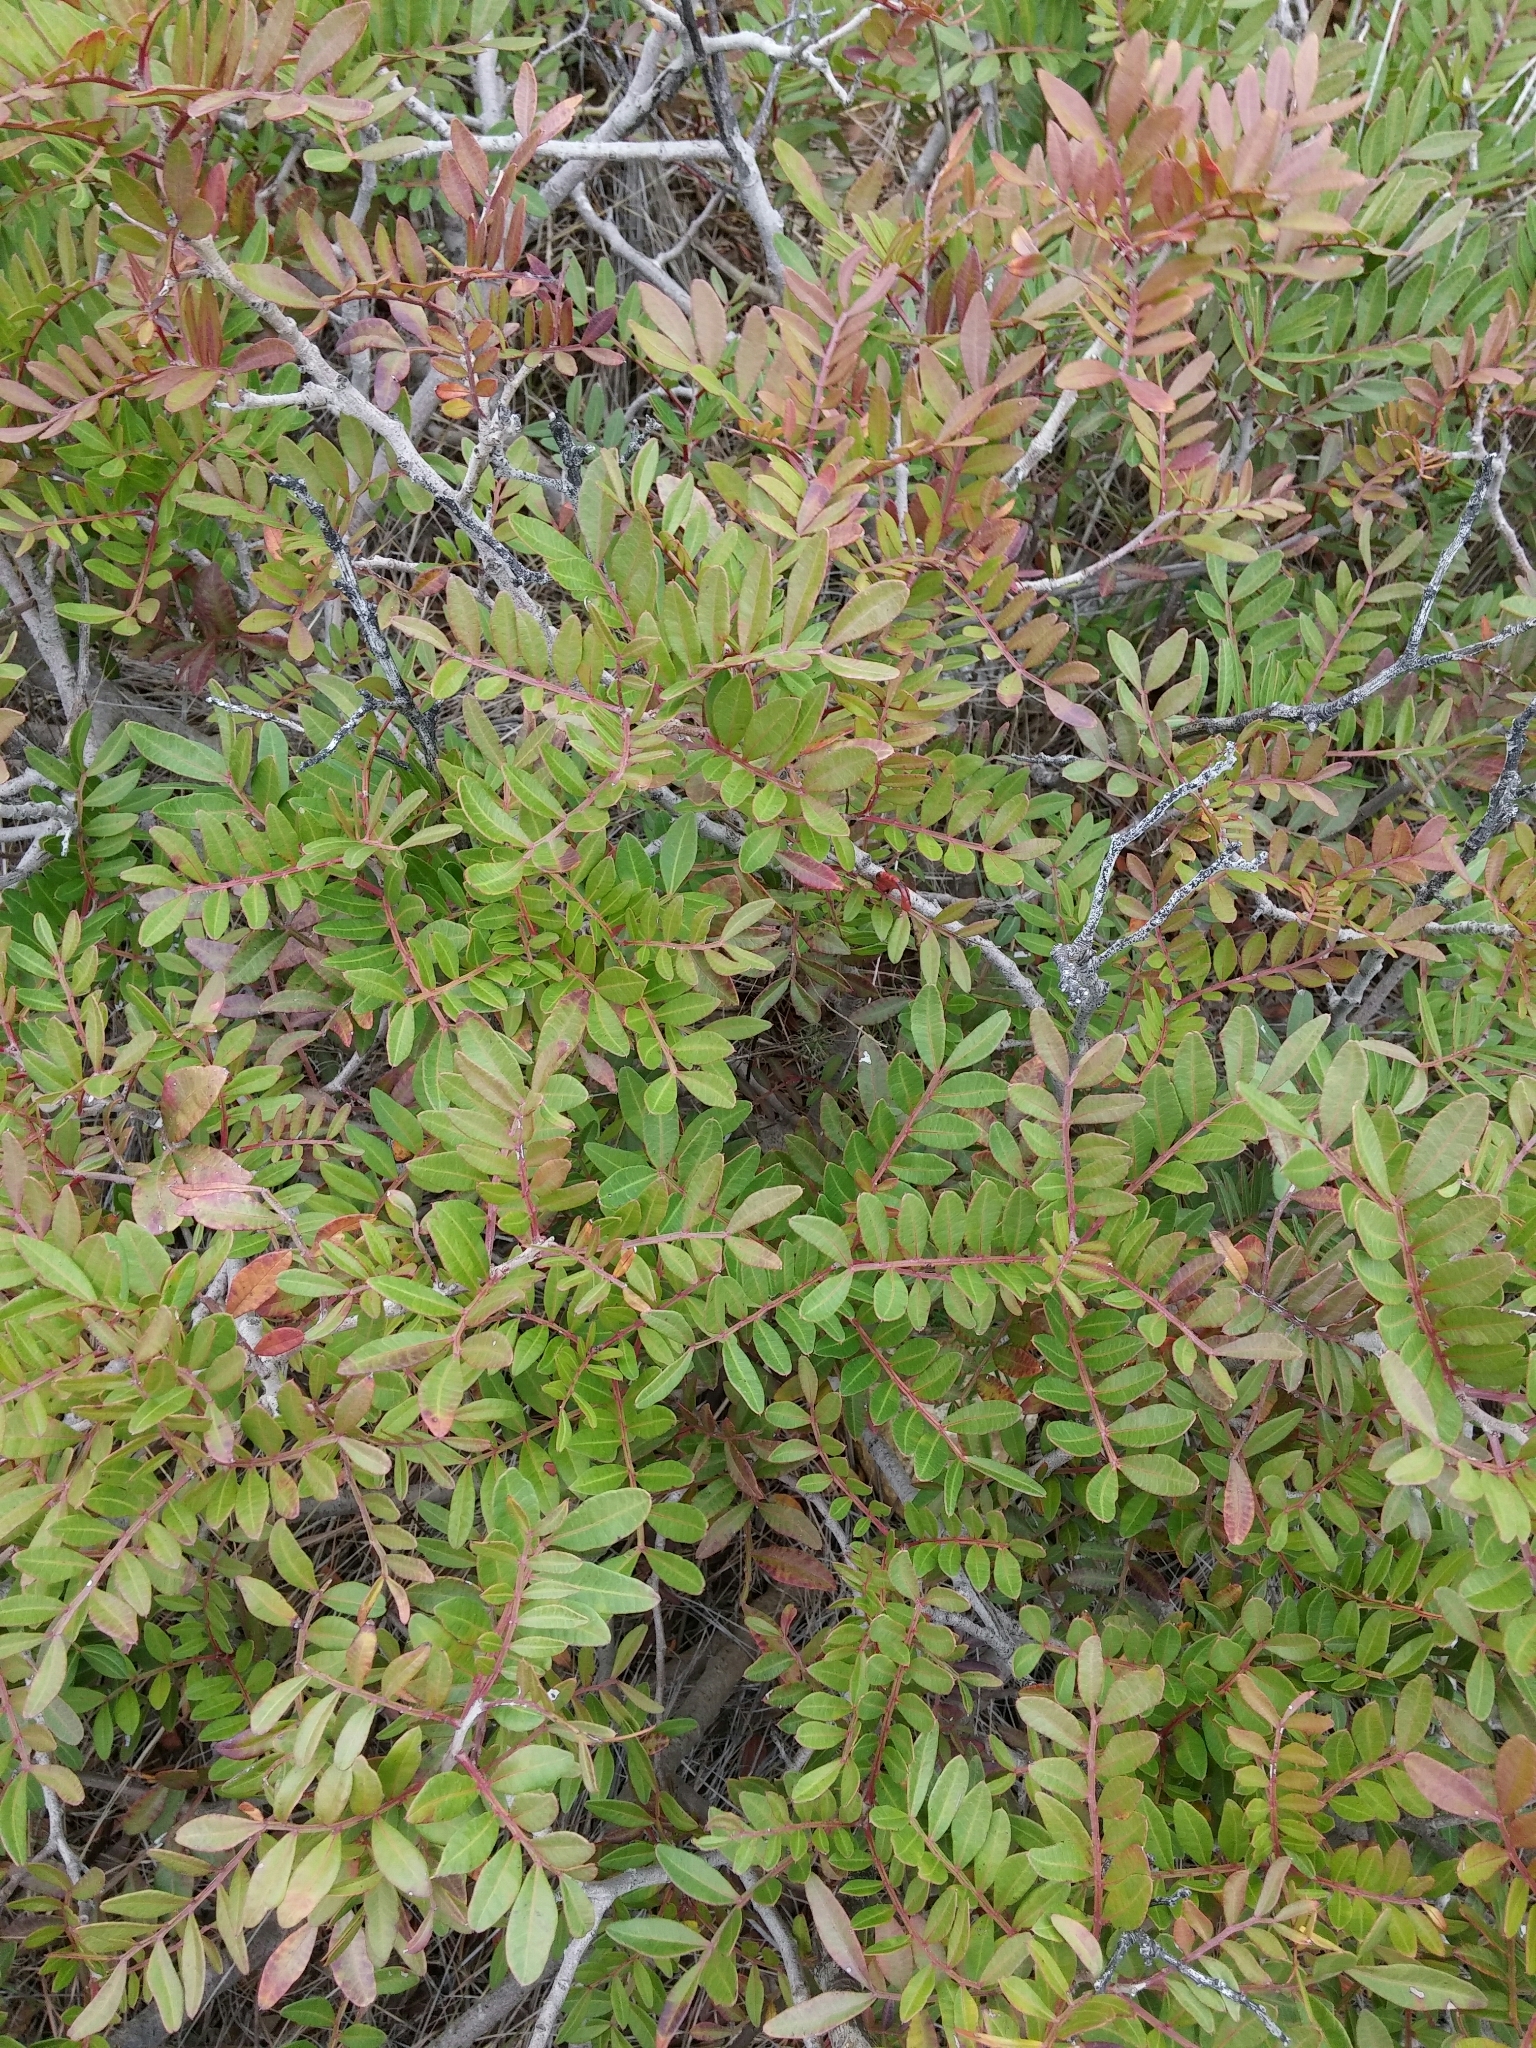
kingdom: Plantae
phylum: Tracheophyta
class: Magnoliopsida
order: Sapindales
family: Anacardiaceae
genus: Pistacia
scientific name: Pistacia lentiscus
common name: Lentisk
